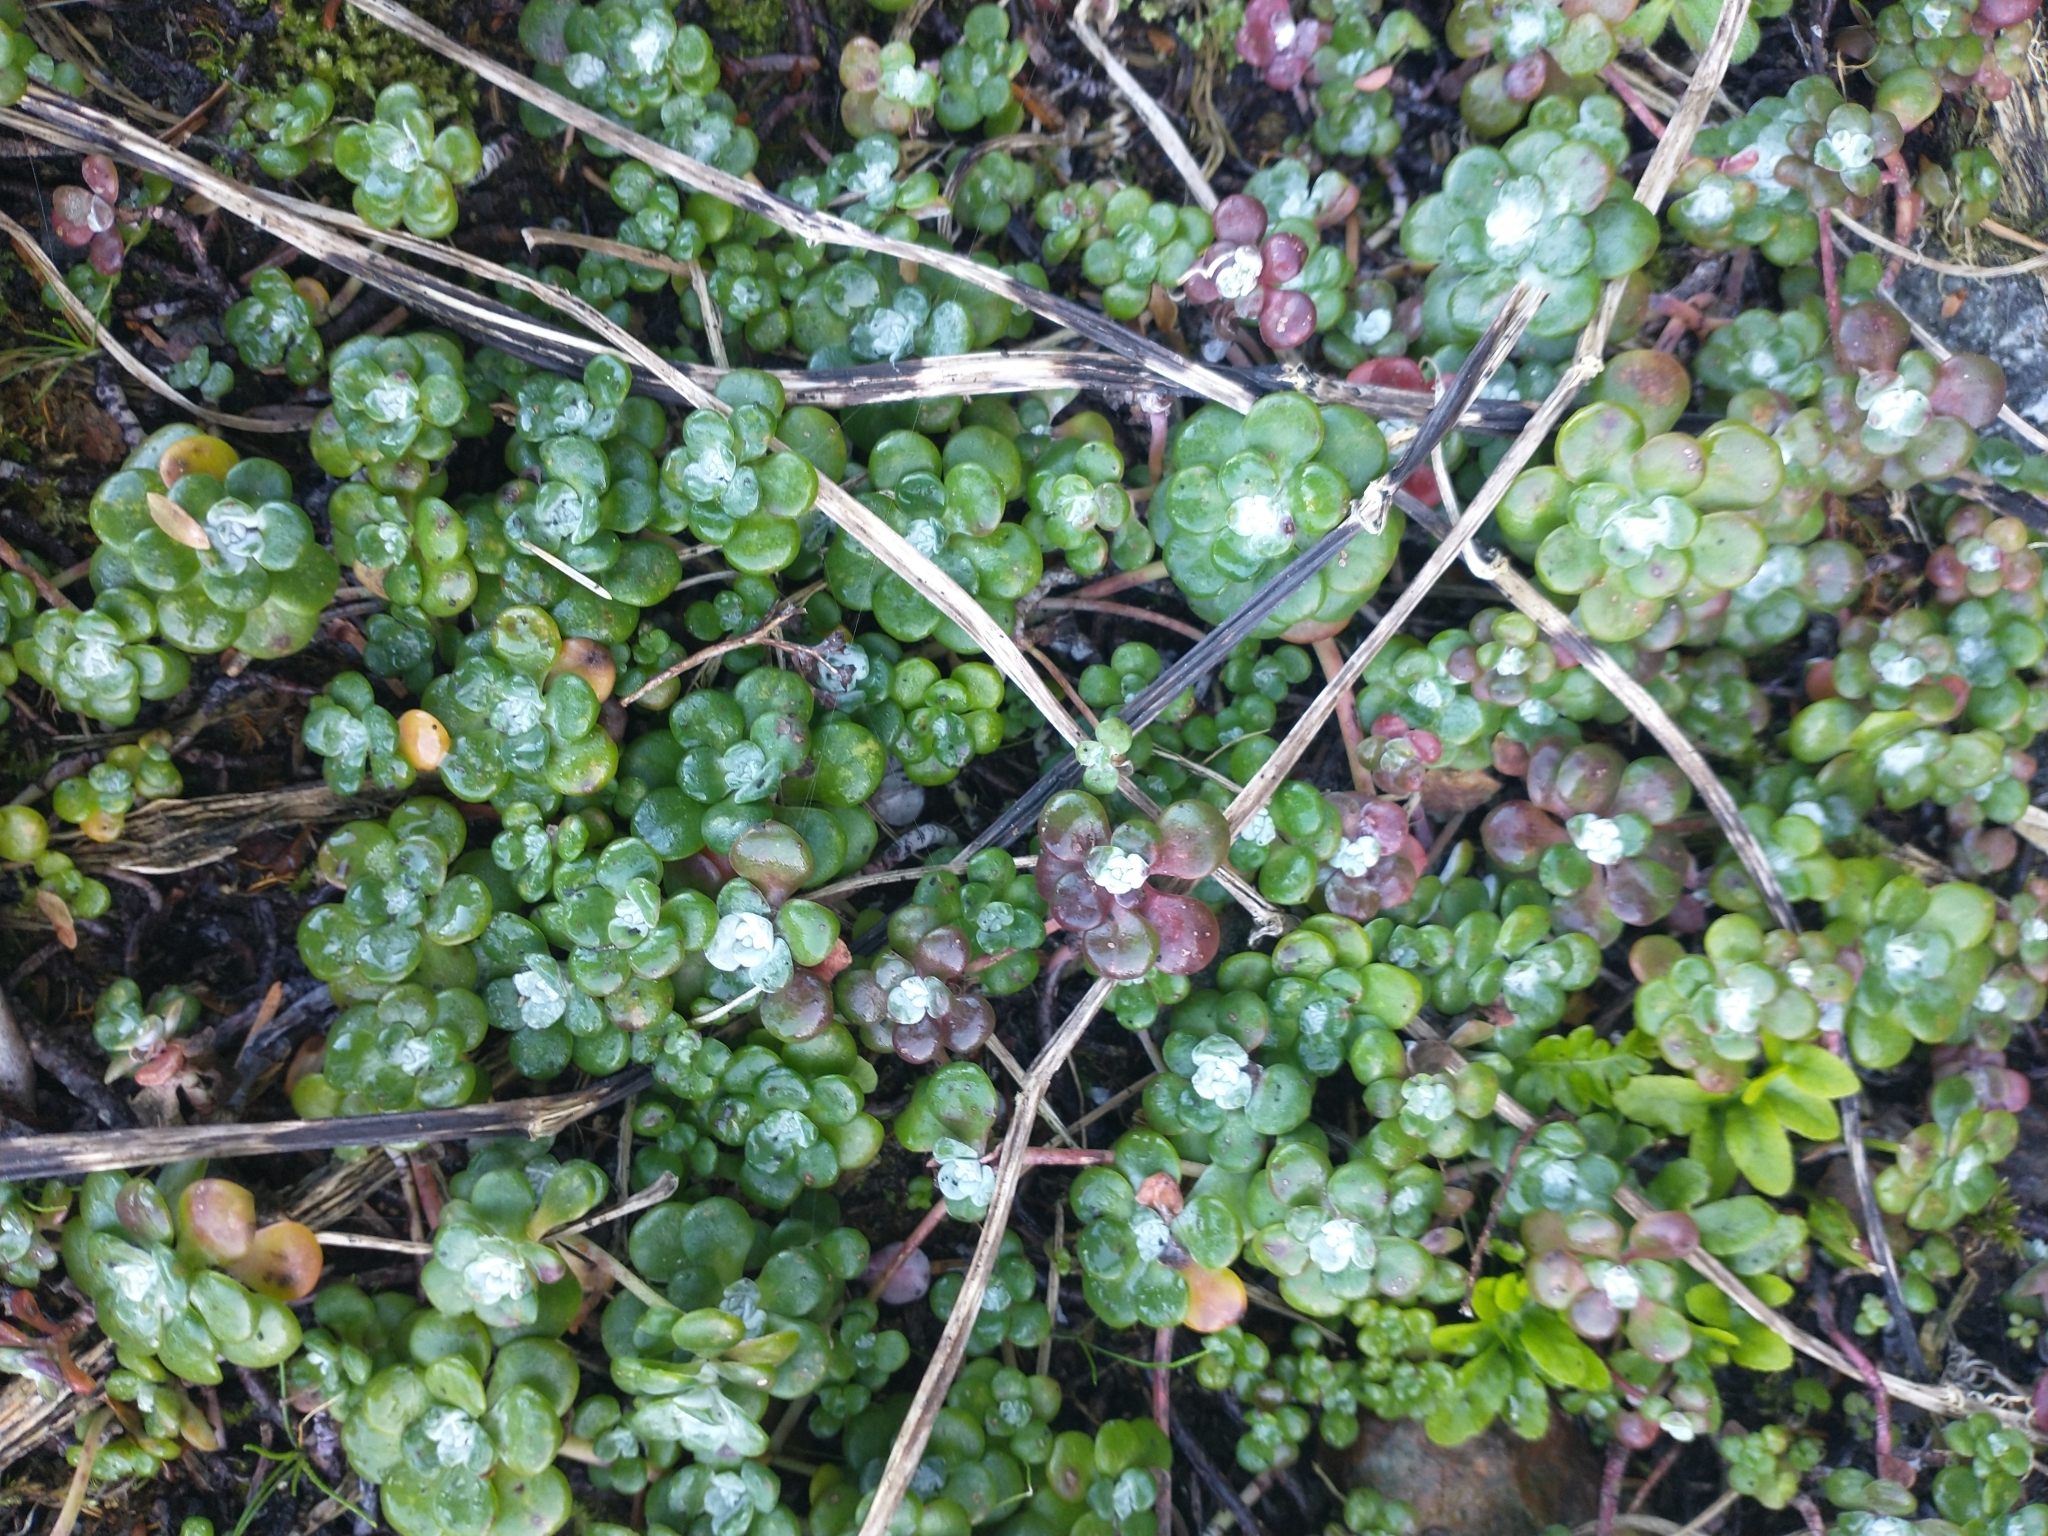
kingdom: Plantae
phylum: Tracheophyta
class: Magnoliopsida
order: Saxifragales
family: Crassulaceae
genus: Sedum
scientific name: Sedum spathulifolium
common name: Colorado stonecrop
